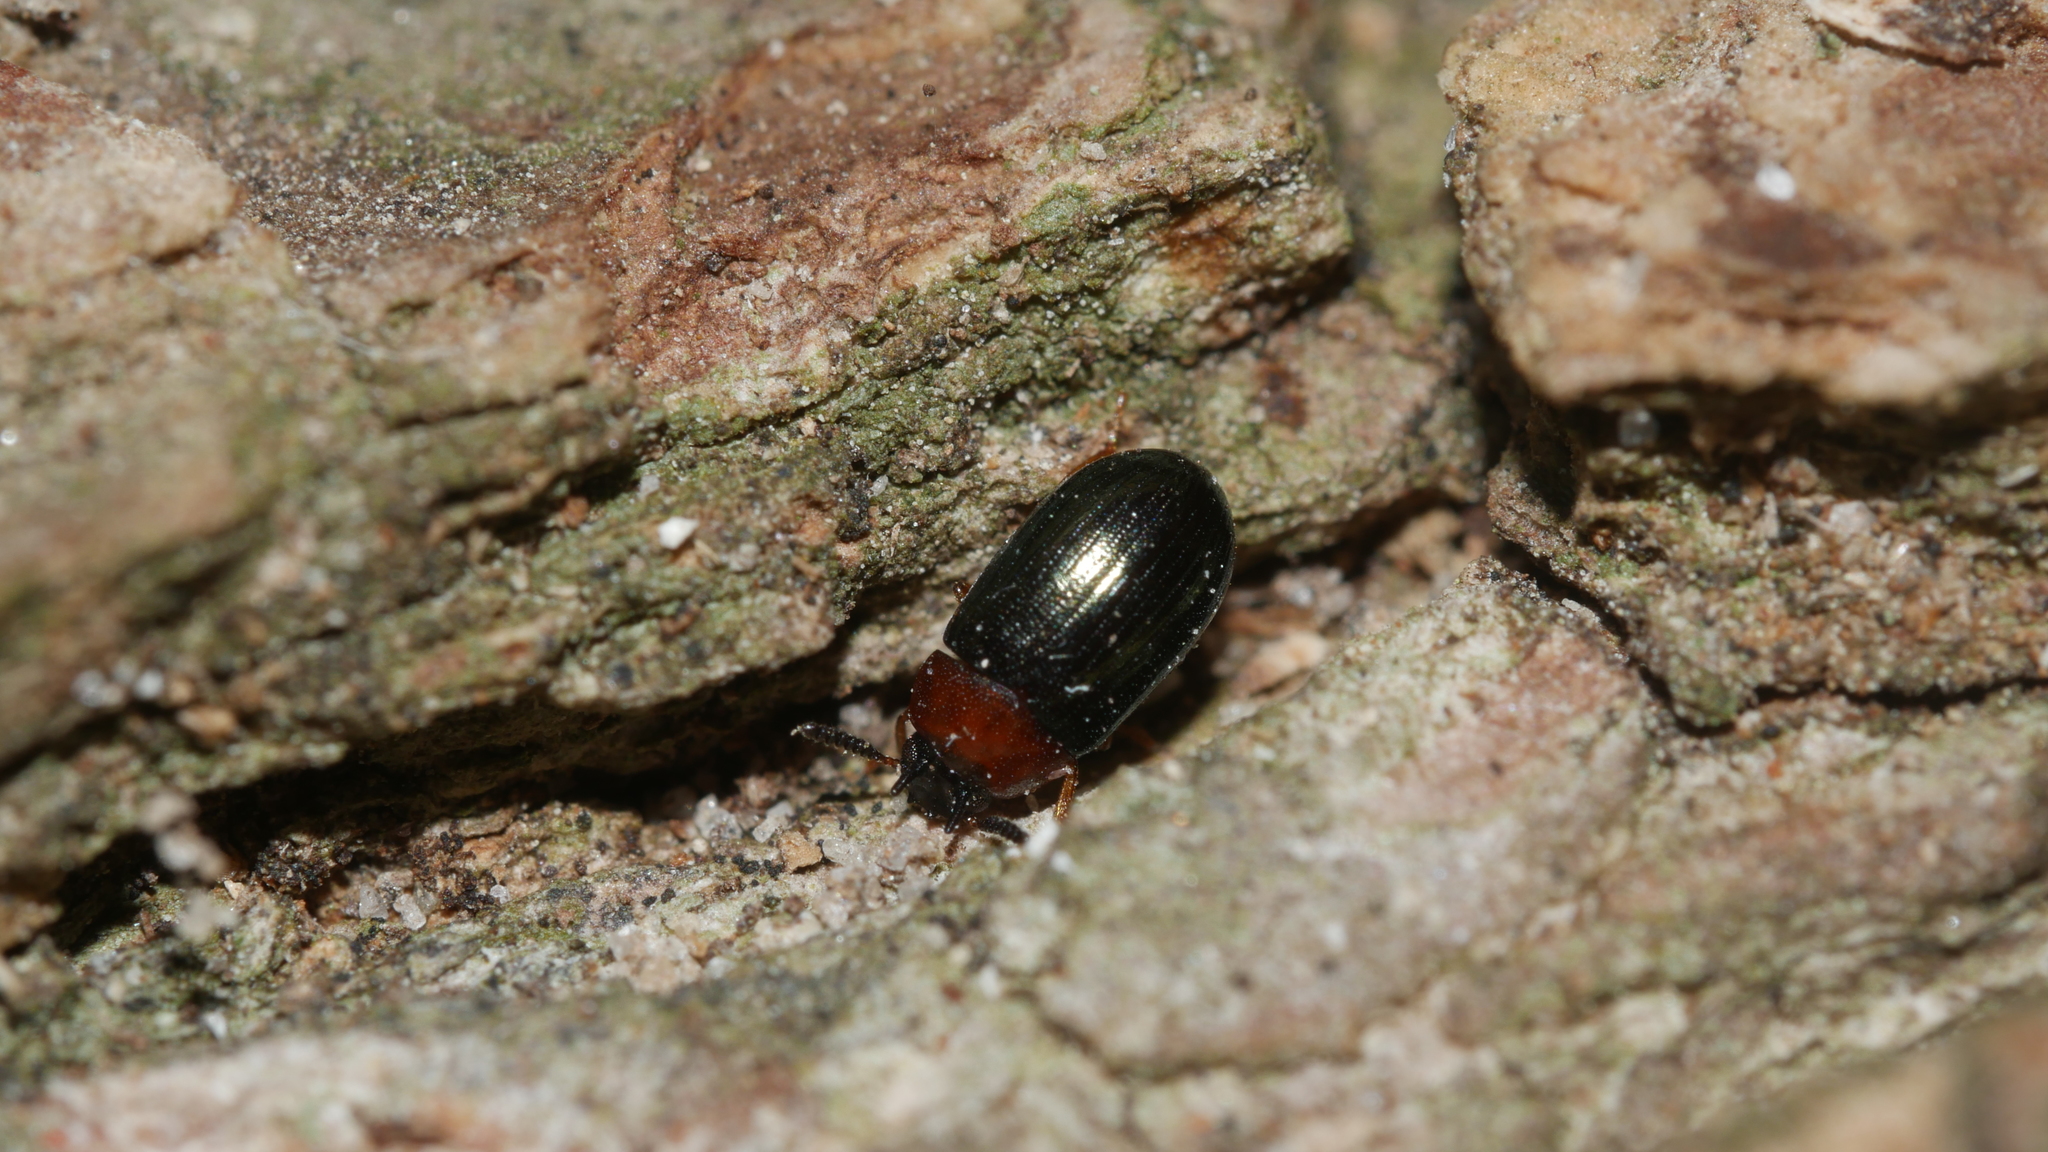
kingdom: Animalia
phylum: Arthropoda
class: Insecta
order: Coleoptera
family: Tenebrionidae
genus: Neomida
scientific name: Neomida bicornis
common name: Two-horned darkling beetle
